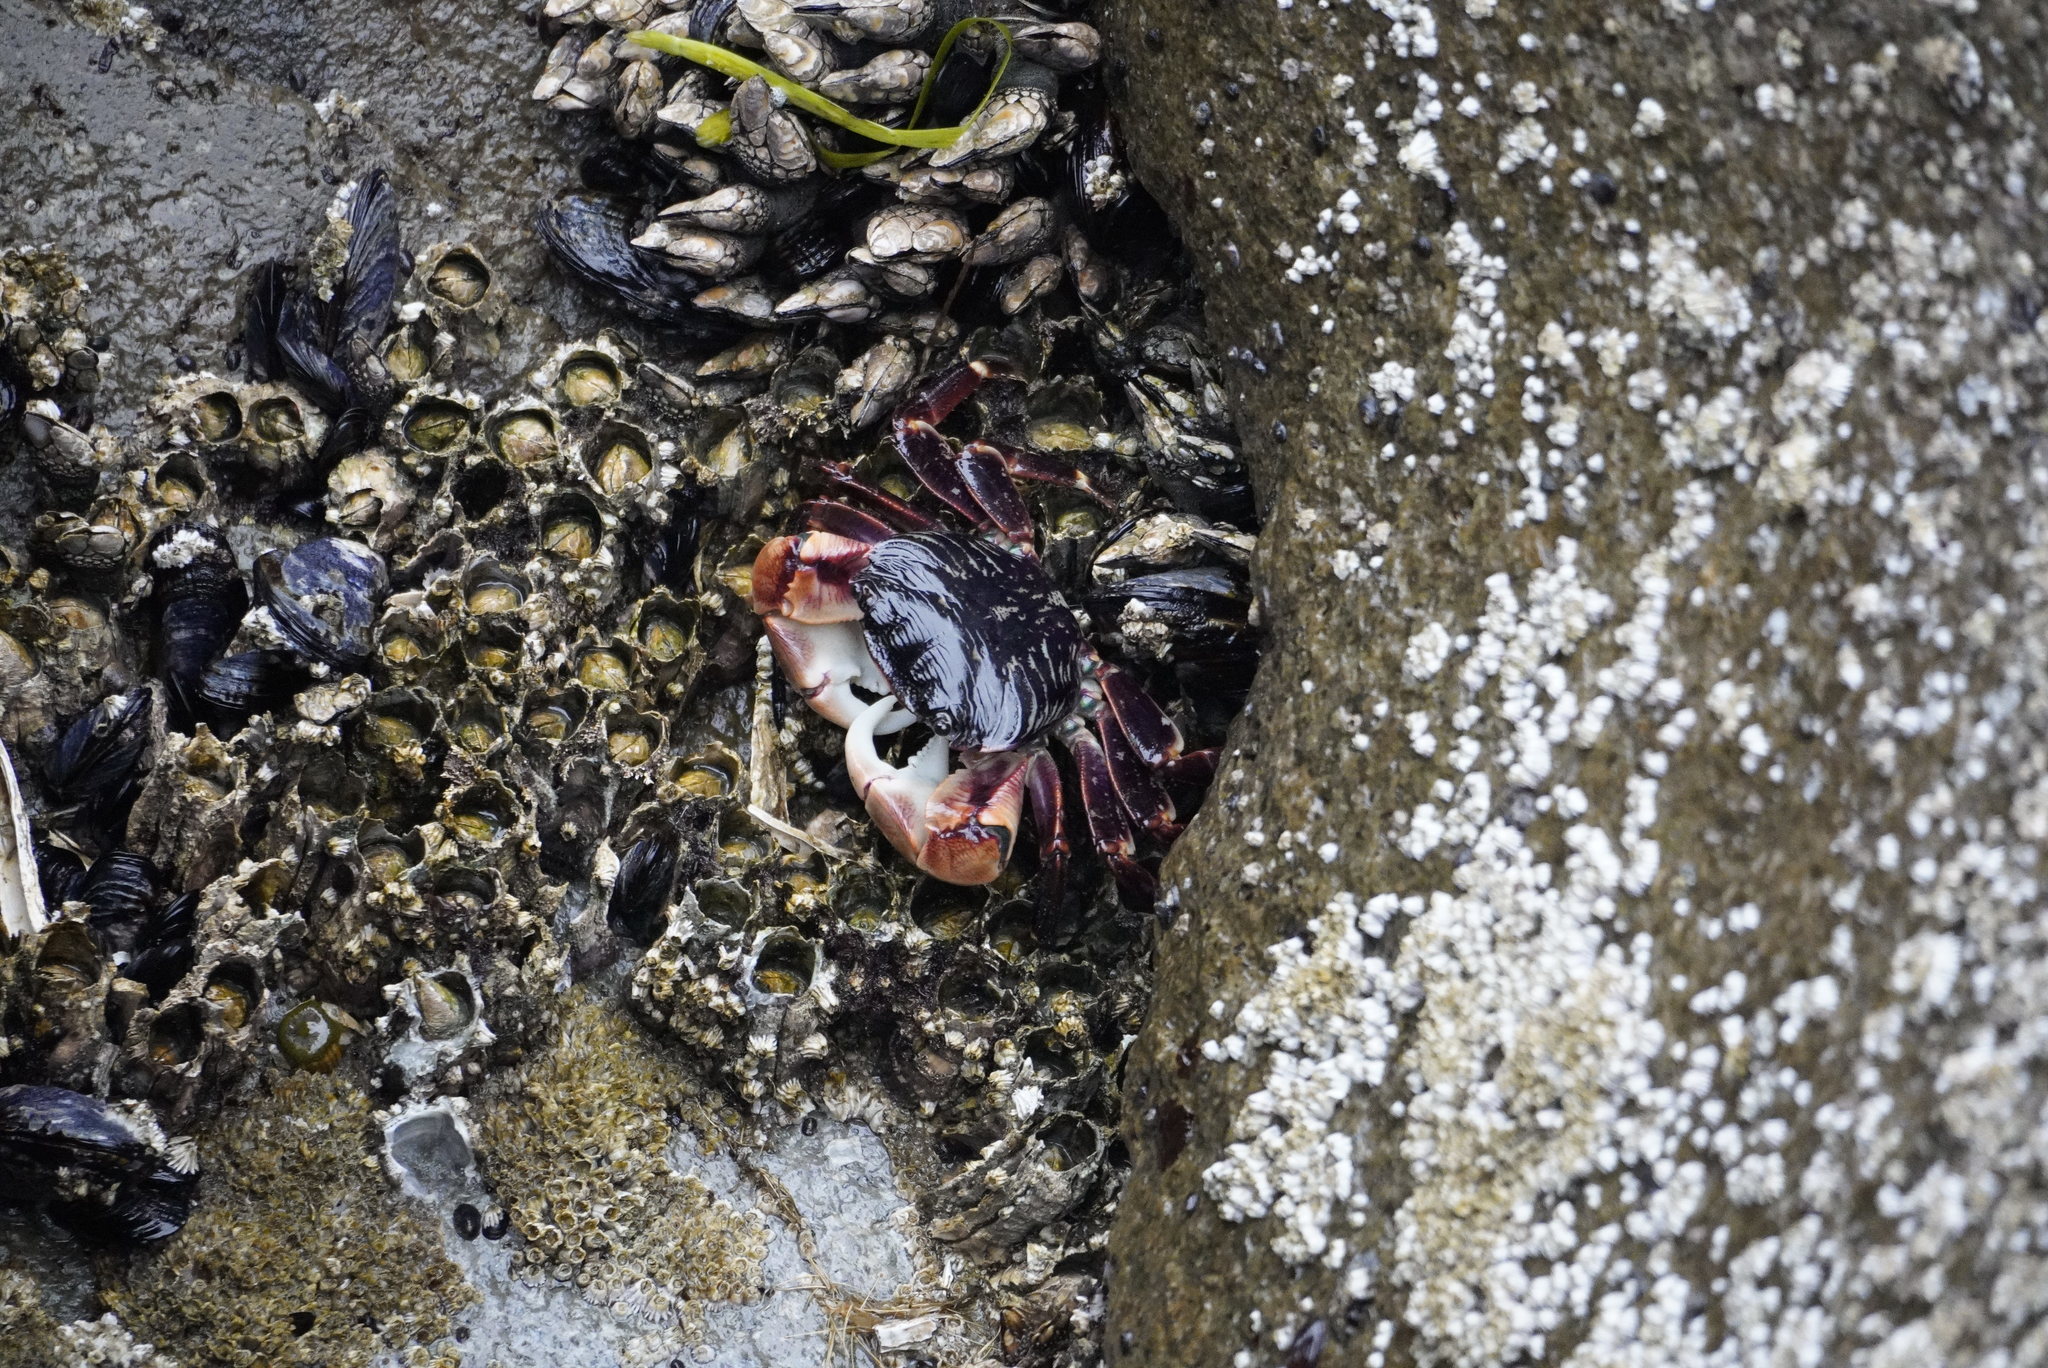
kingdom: Animalia
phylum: Arthropoda
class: Malacostraca
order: Decapoda
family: Grapsidae
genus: Pachygrapsus
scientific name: Pachygrapsus crassipes
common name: Striped shore crab
